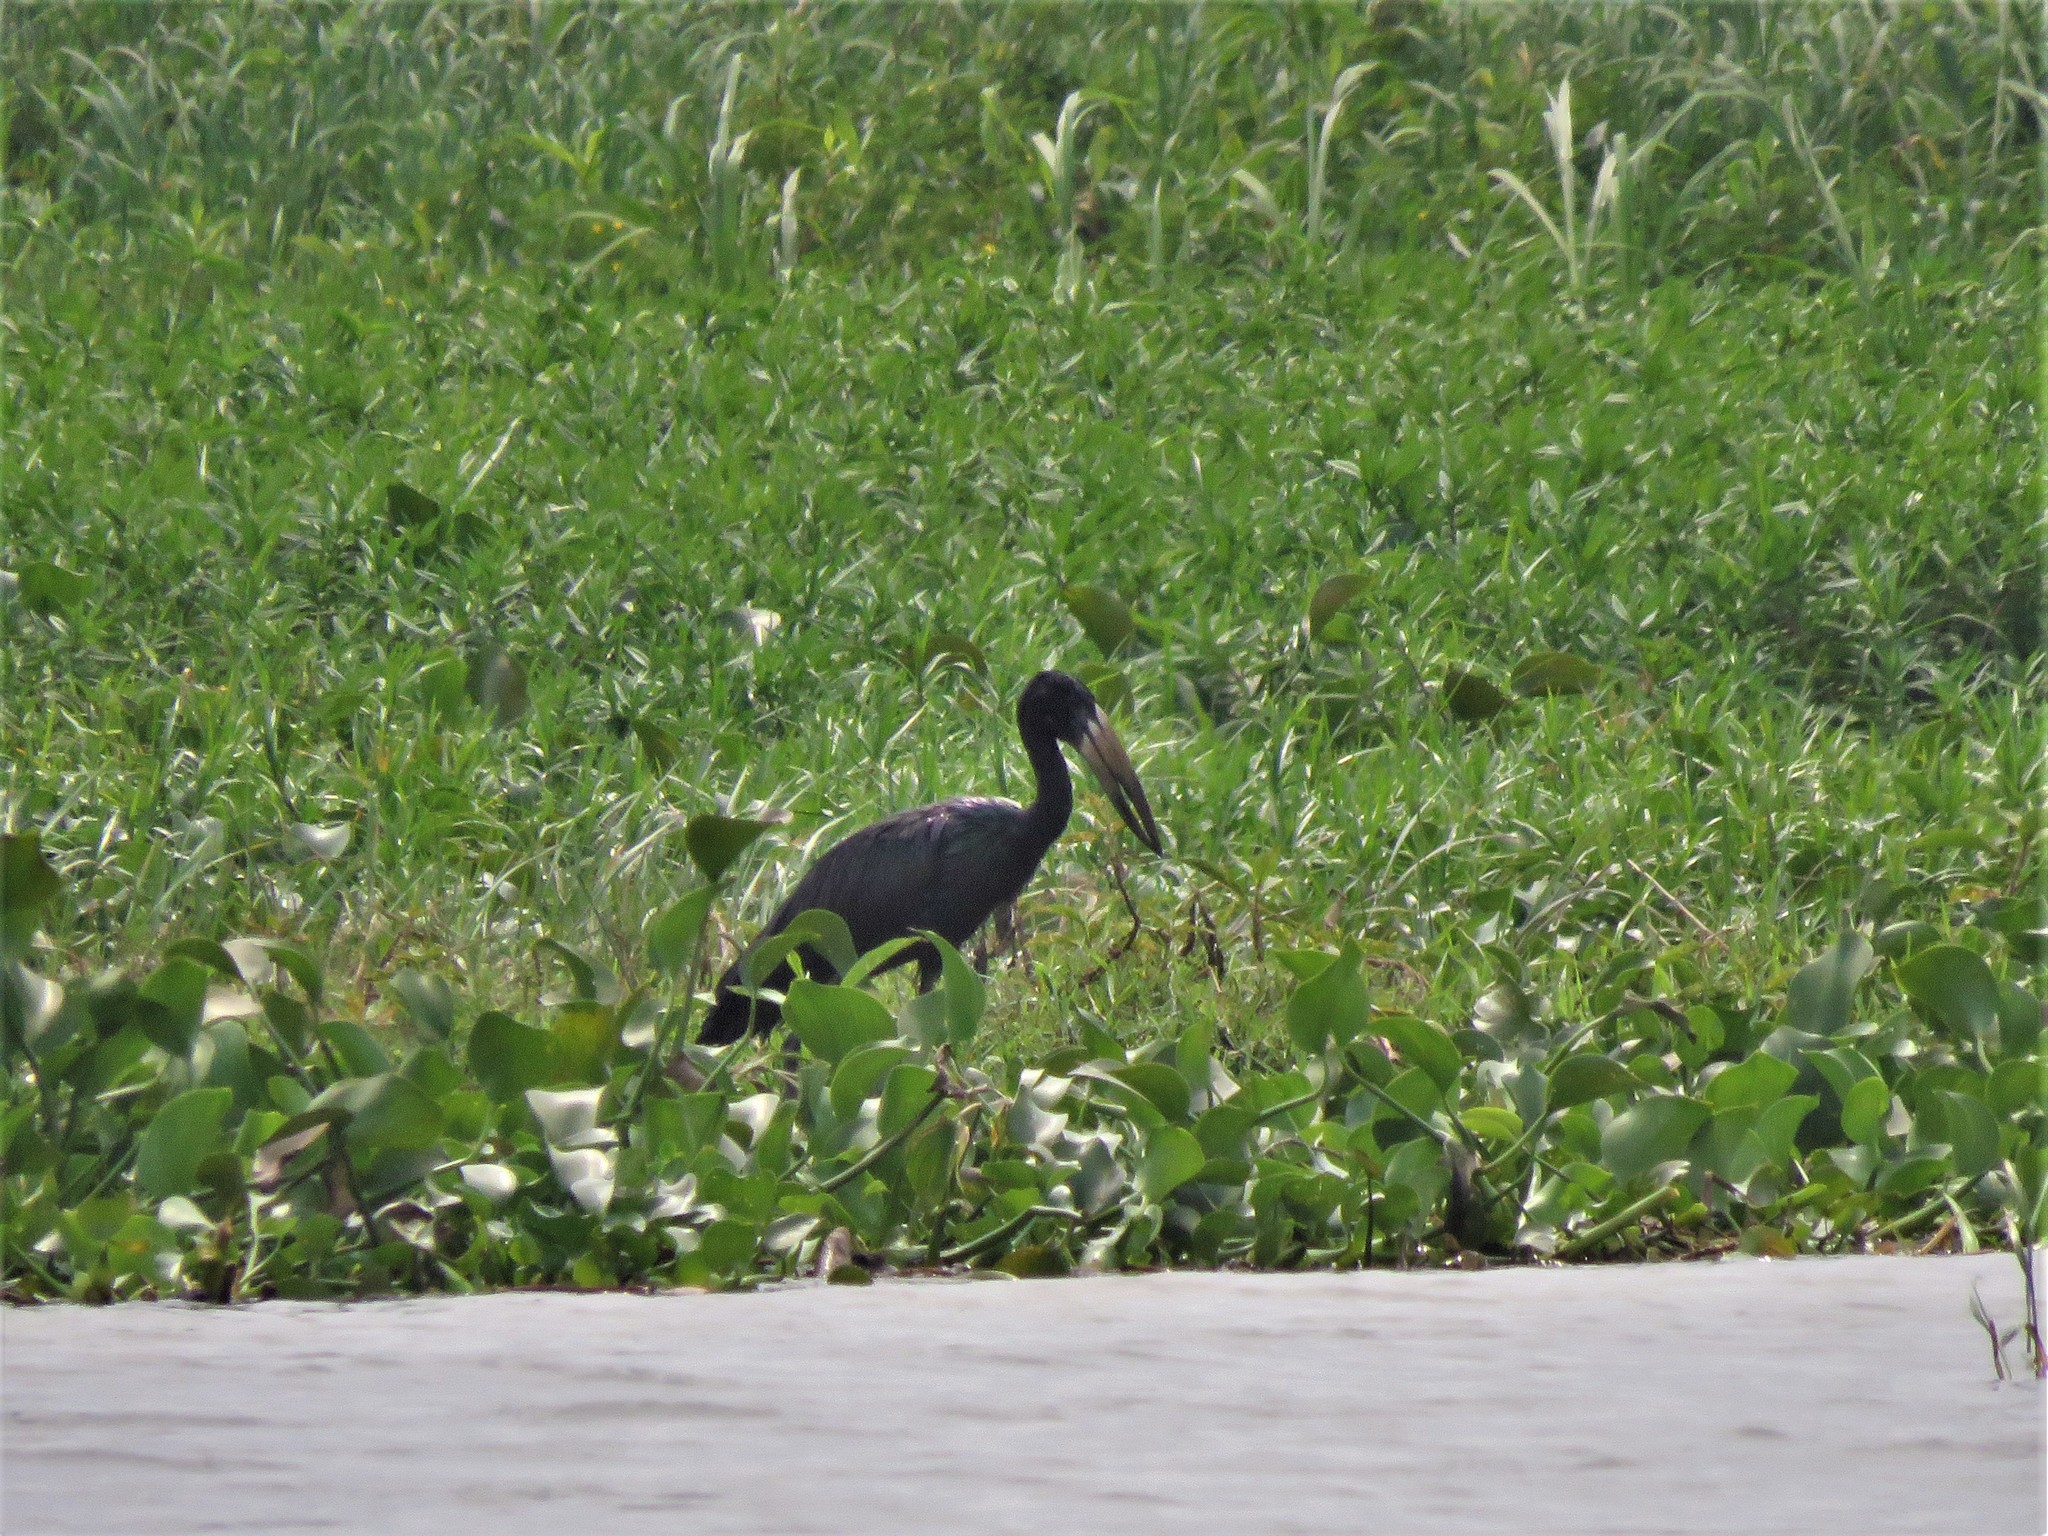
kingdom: Animalia
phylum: Chordata
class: Aves
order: Ciconiiformes
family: Ciconiidae
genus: Anastomus
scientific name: Anastomus lamelligerus
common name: African openbill
